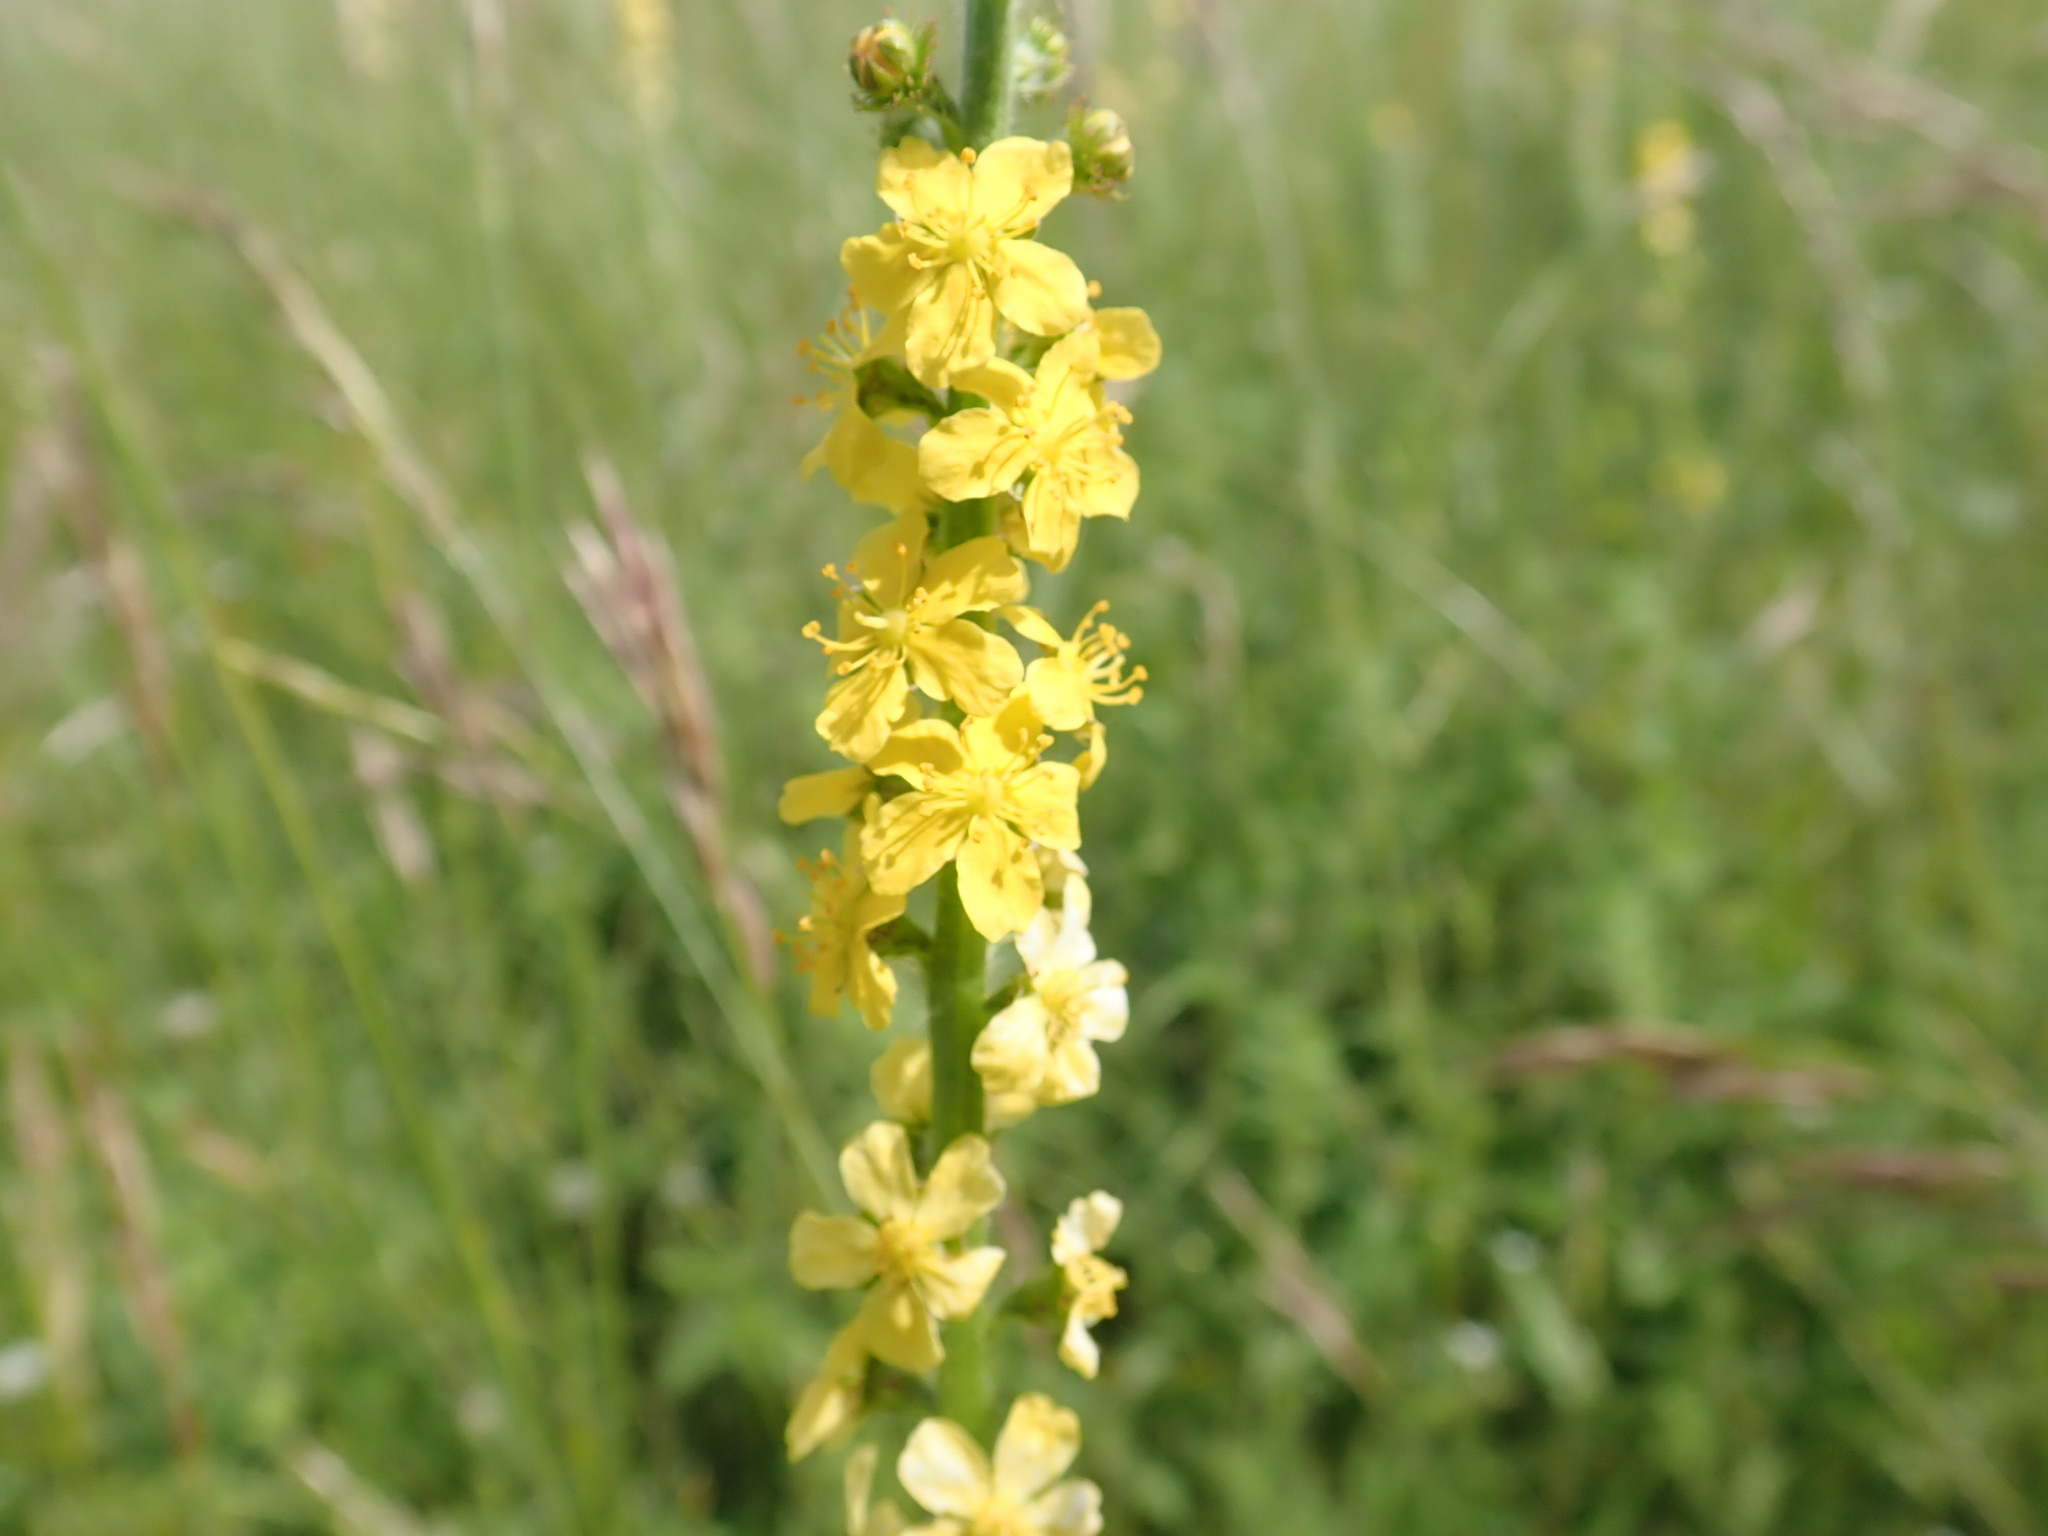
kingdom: Plantae
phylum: Tracheophyta
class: Magnoliopsida
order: Rosales
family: Rosaceae
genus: Agrimonia
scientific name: Agrimonia eupatoria
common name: Agrimony
